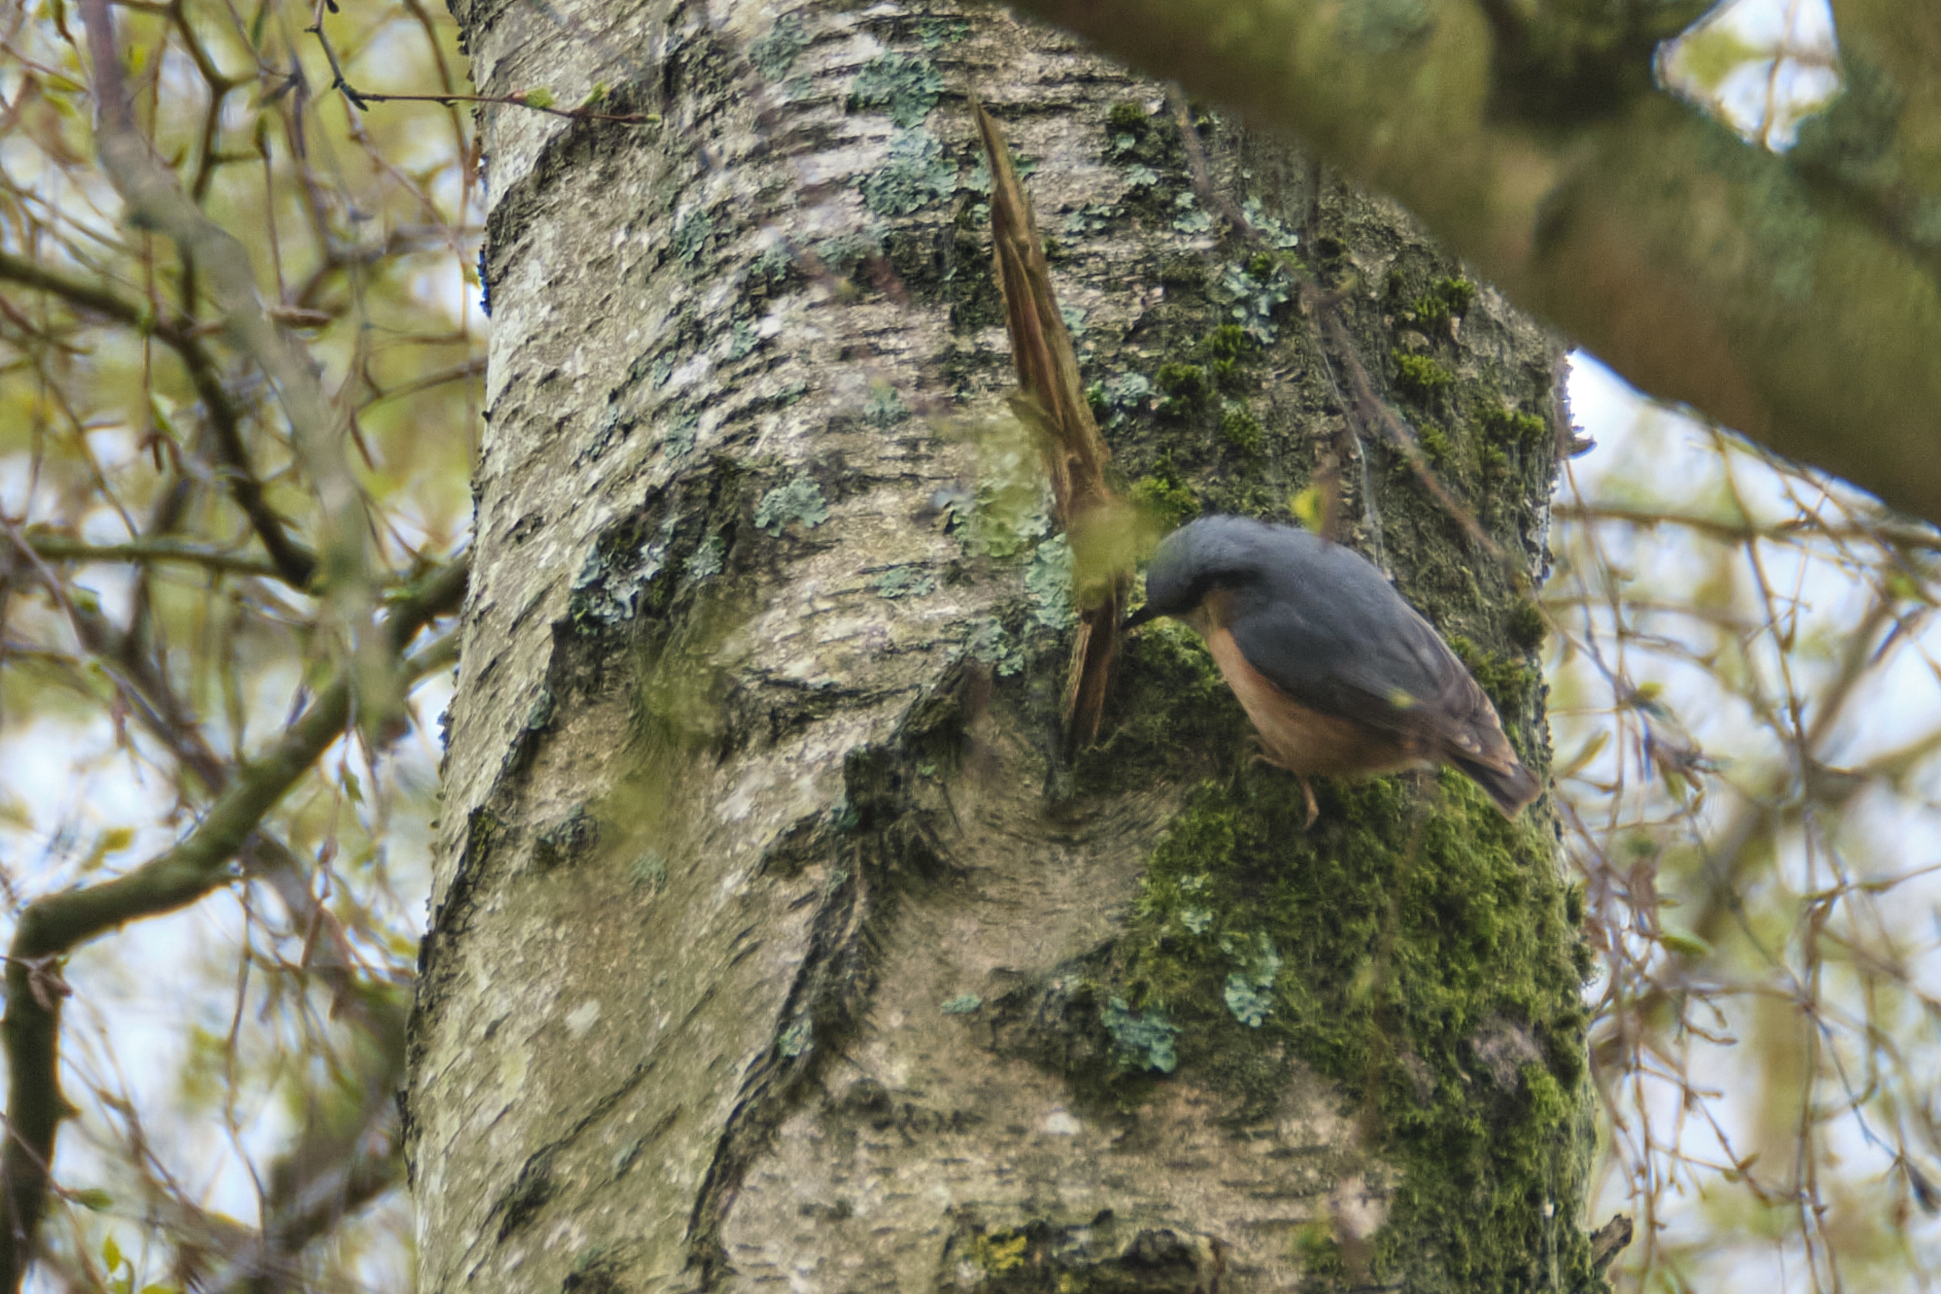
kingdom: Animalia
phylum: Chordata
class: Aves
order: Passeriformes
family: Sittidae
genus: Sitta
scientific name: Sitta europaea
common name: Eurasian nuthatch
